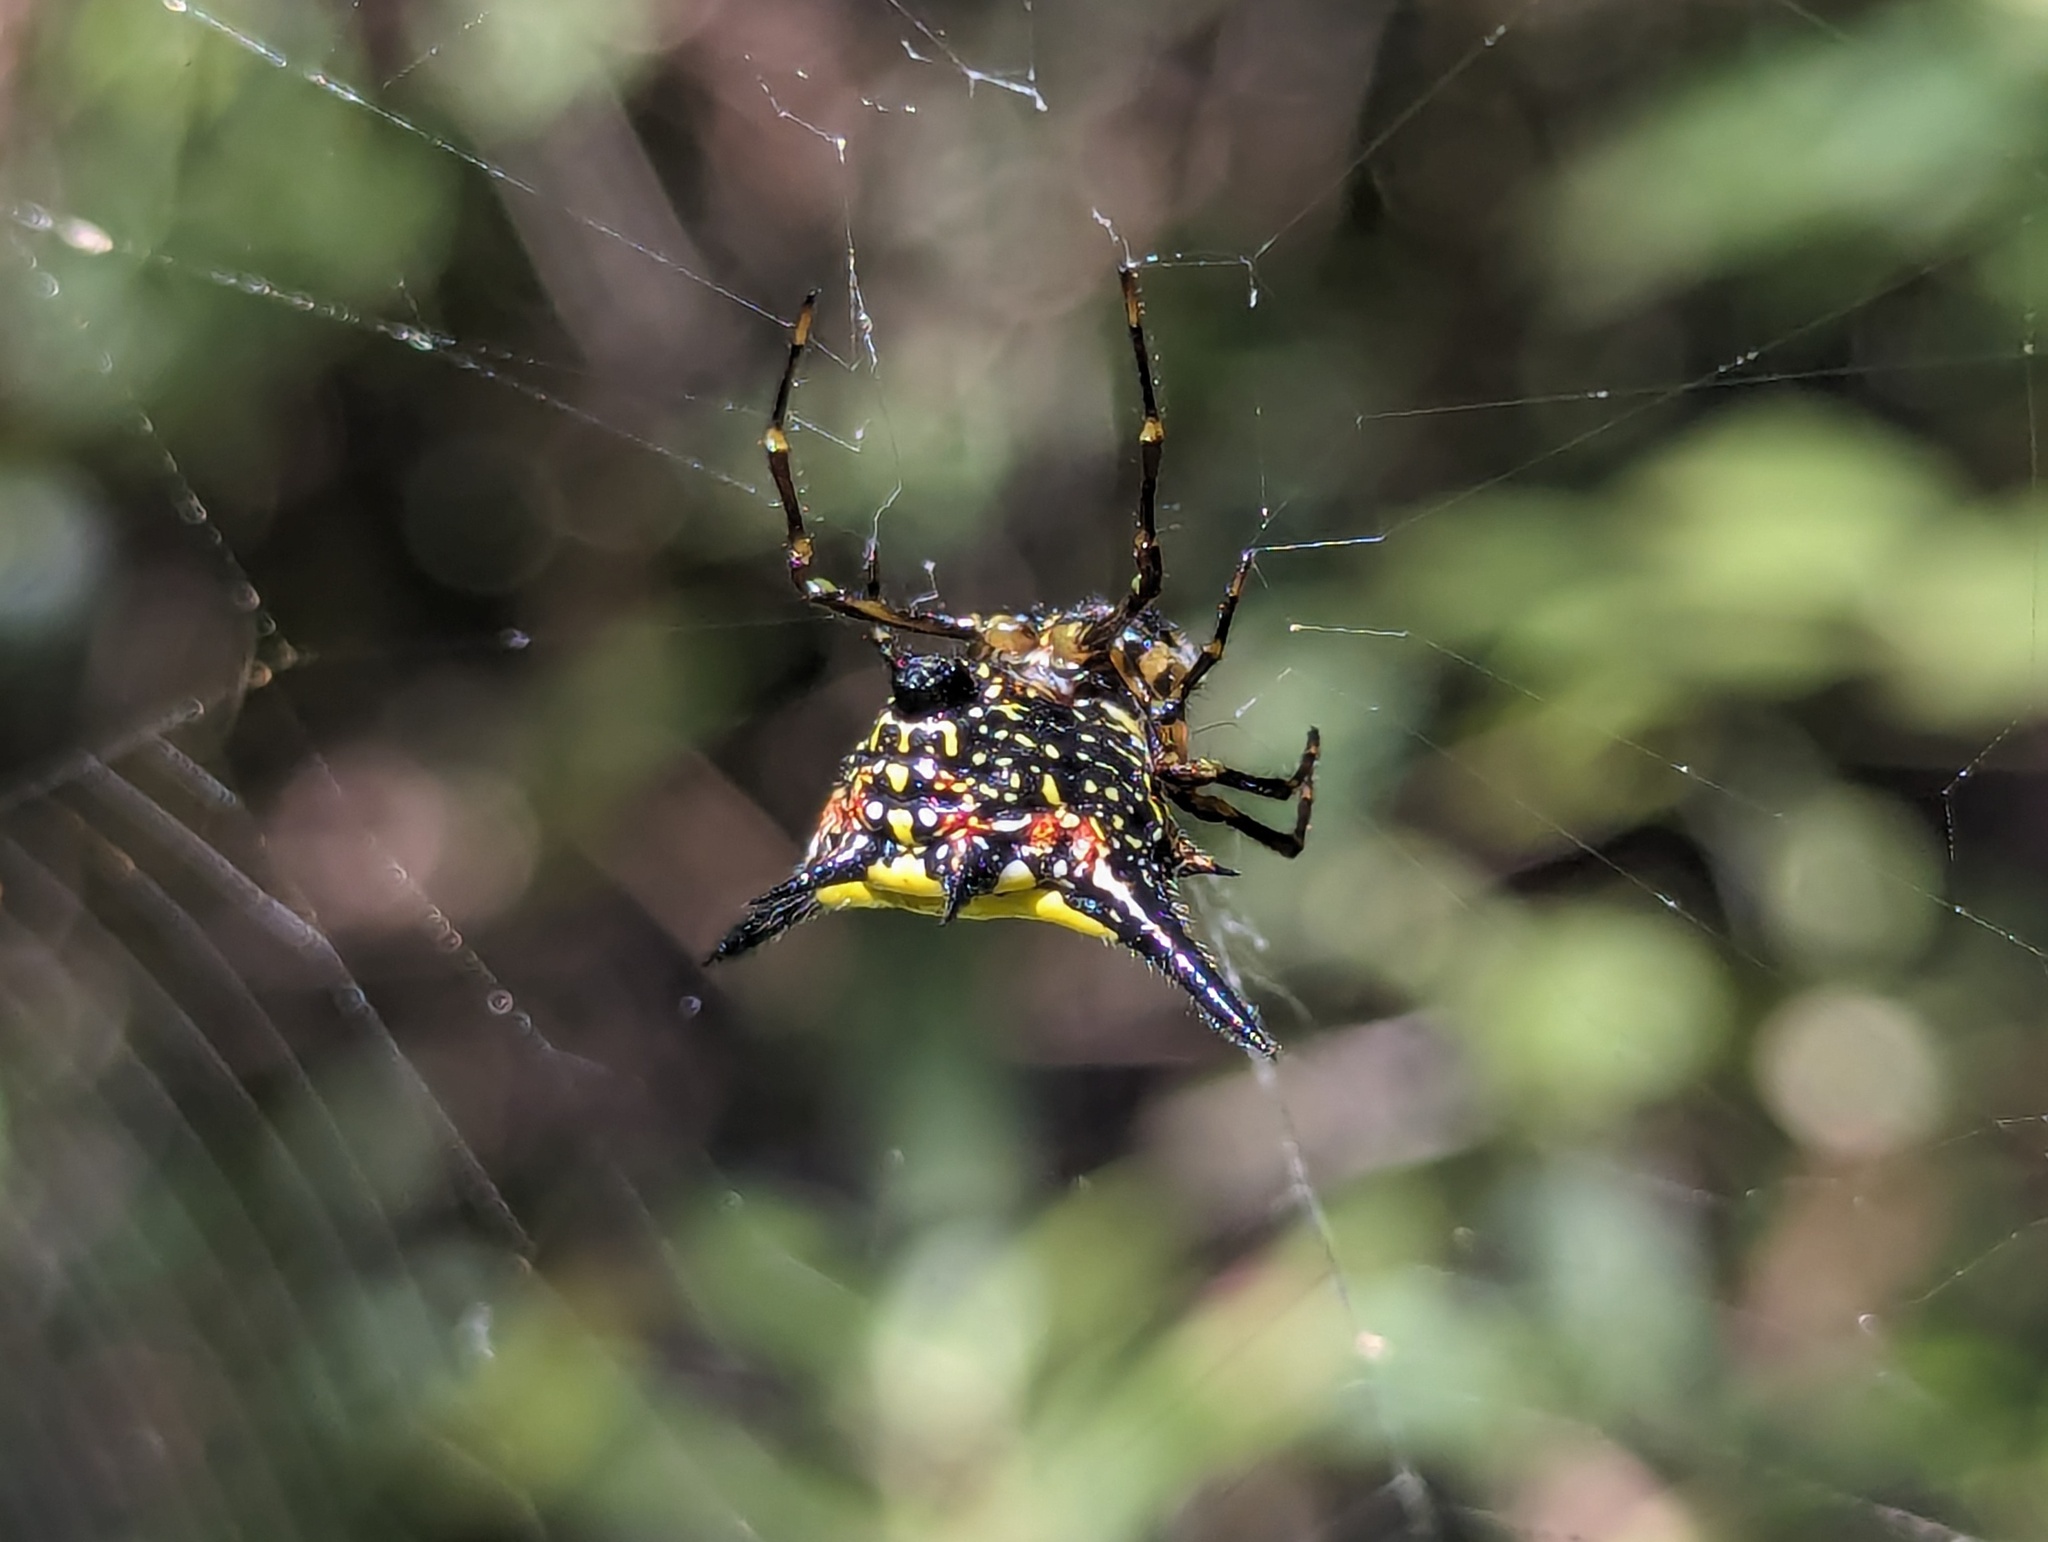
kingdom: Animalia
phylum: Arthropoda
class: Arachnida
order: Araneae
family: Araneidae
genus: Macracantha
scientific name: Macracantha hasselti
